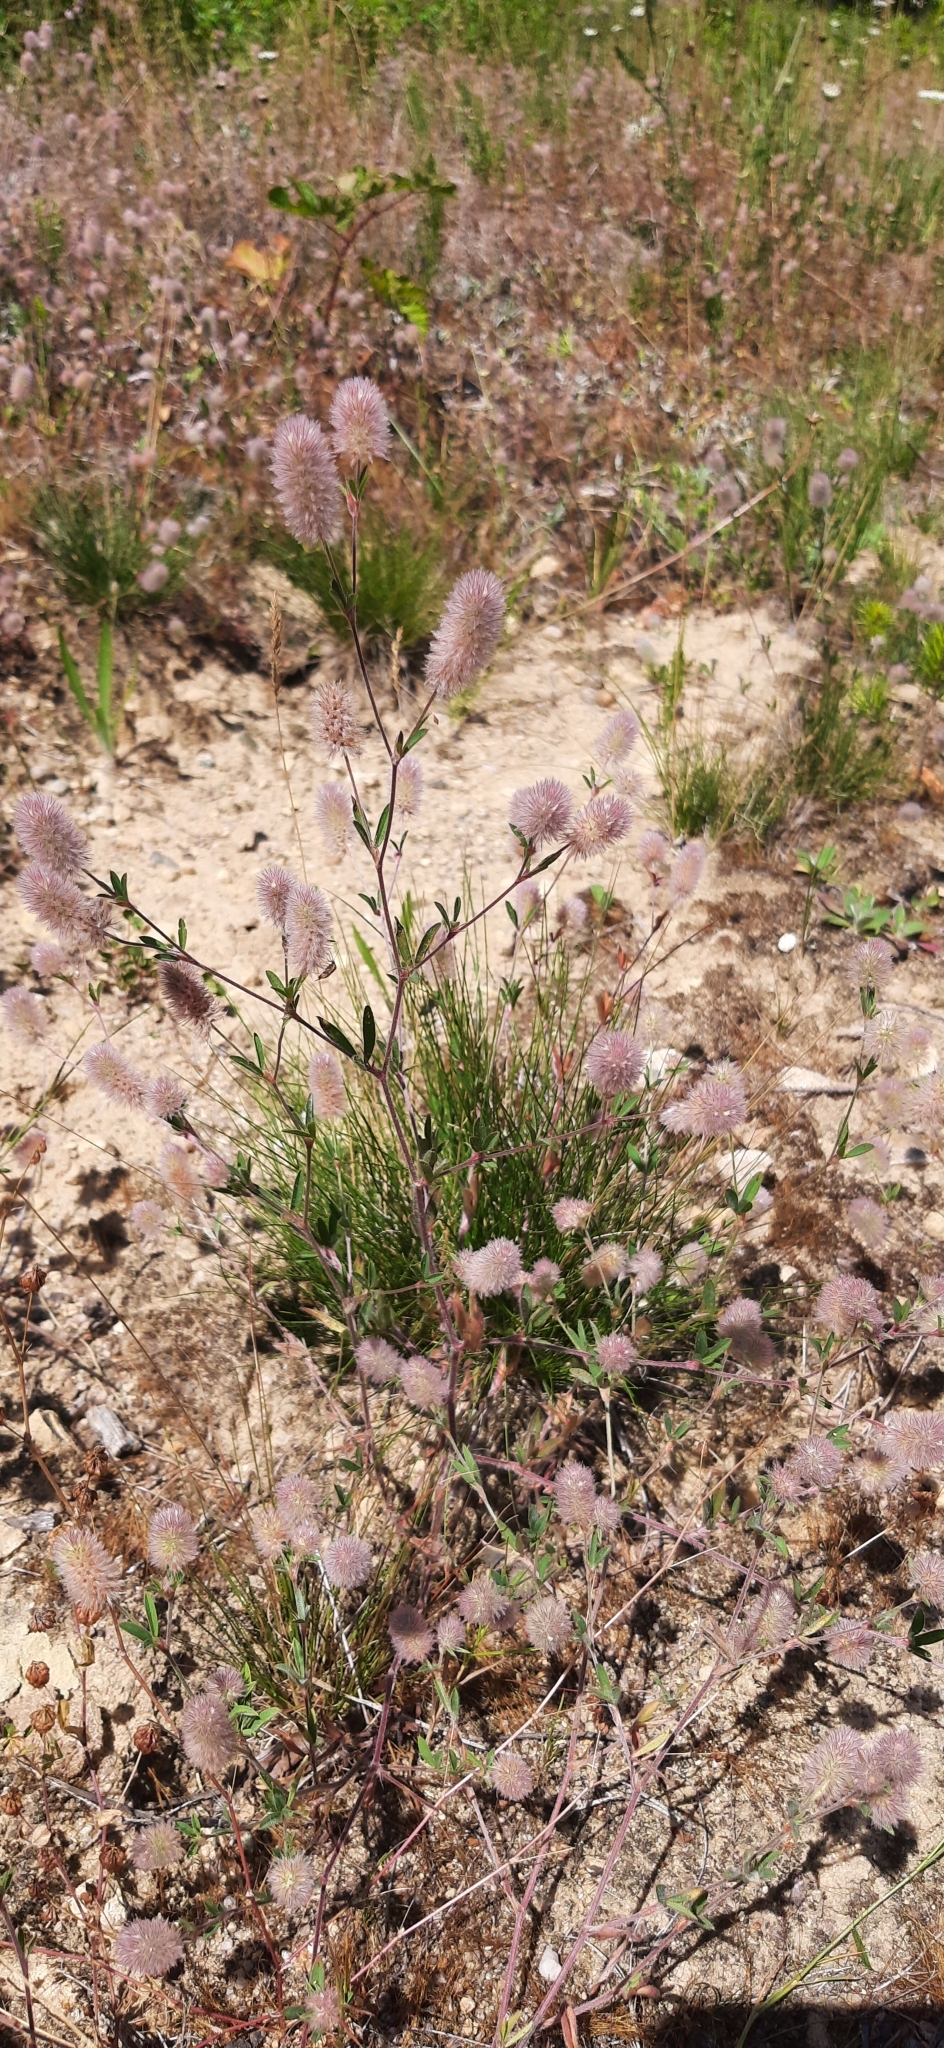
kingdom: Plantae
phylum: Tracheophyta
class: Magnoliopsida
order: Fabales
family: Fabaceae
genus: Trifolium
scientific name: Trifolium arvense
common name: Hare's-foot clover
